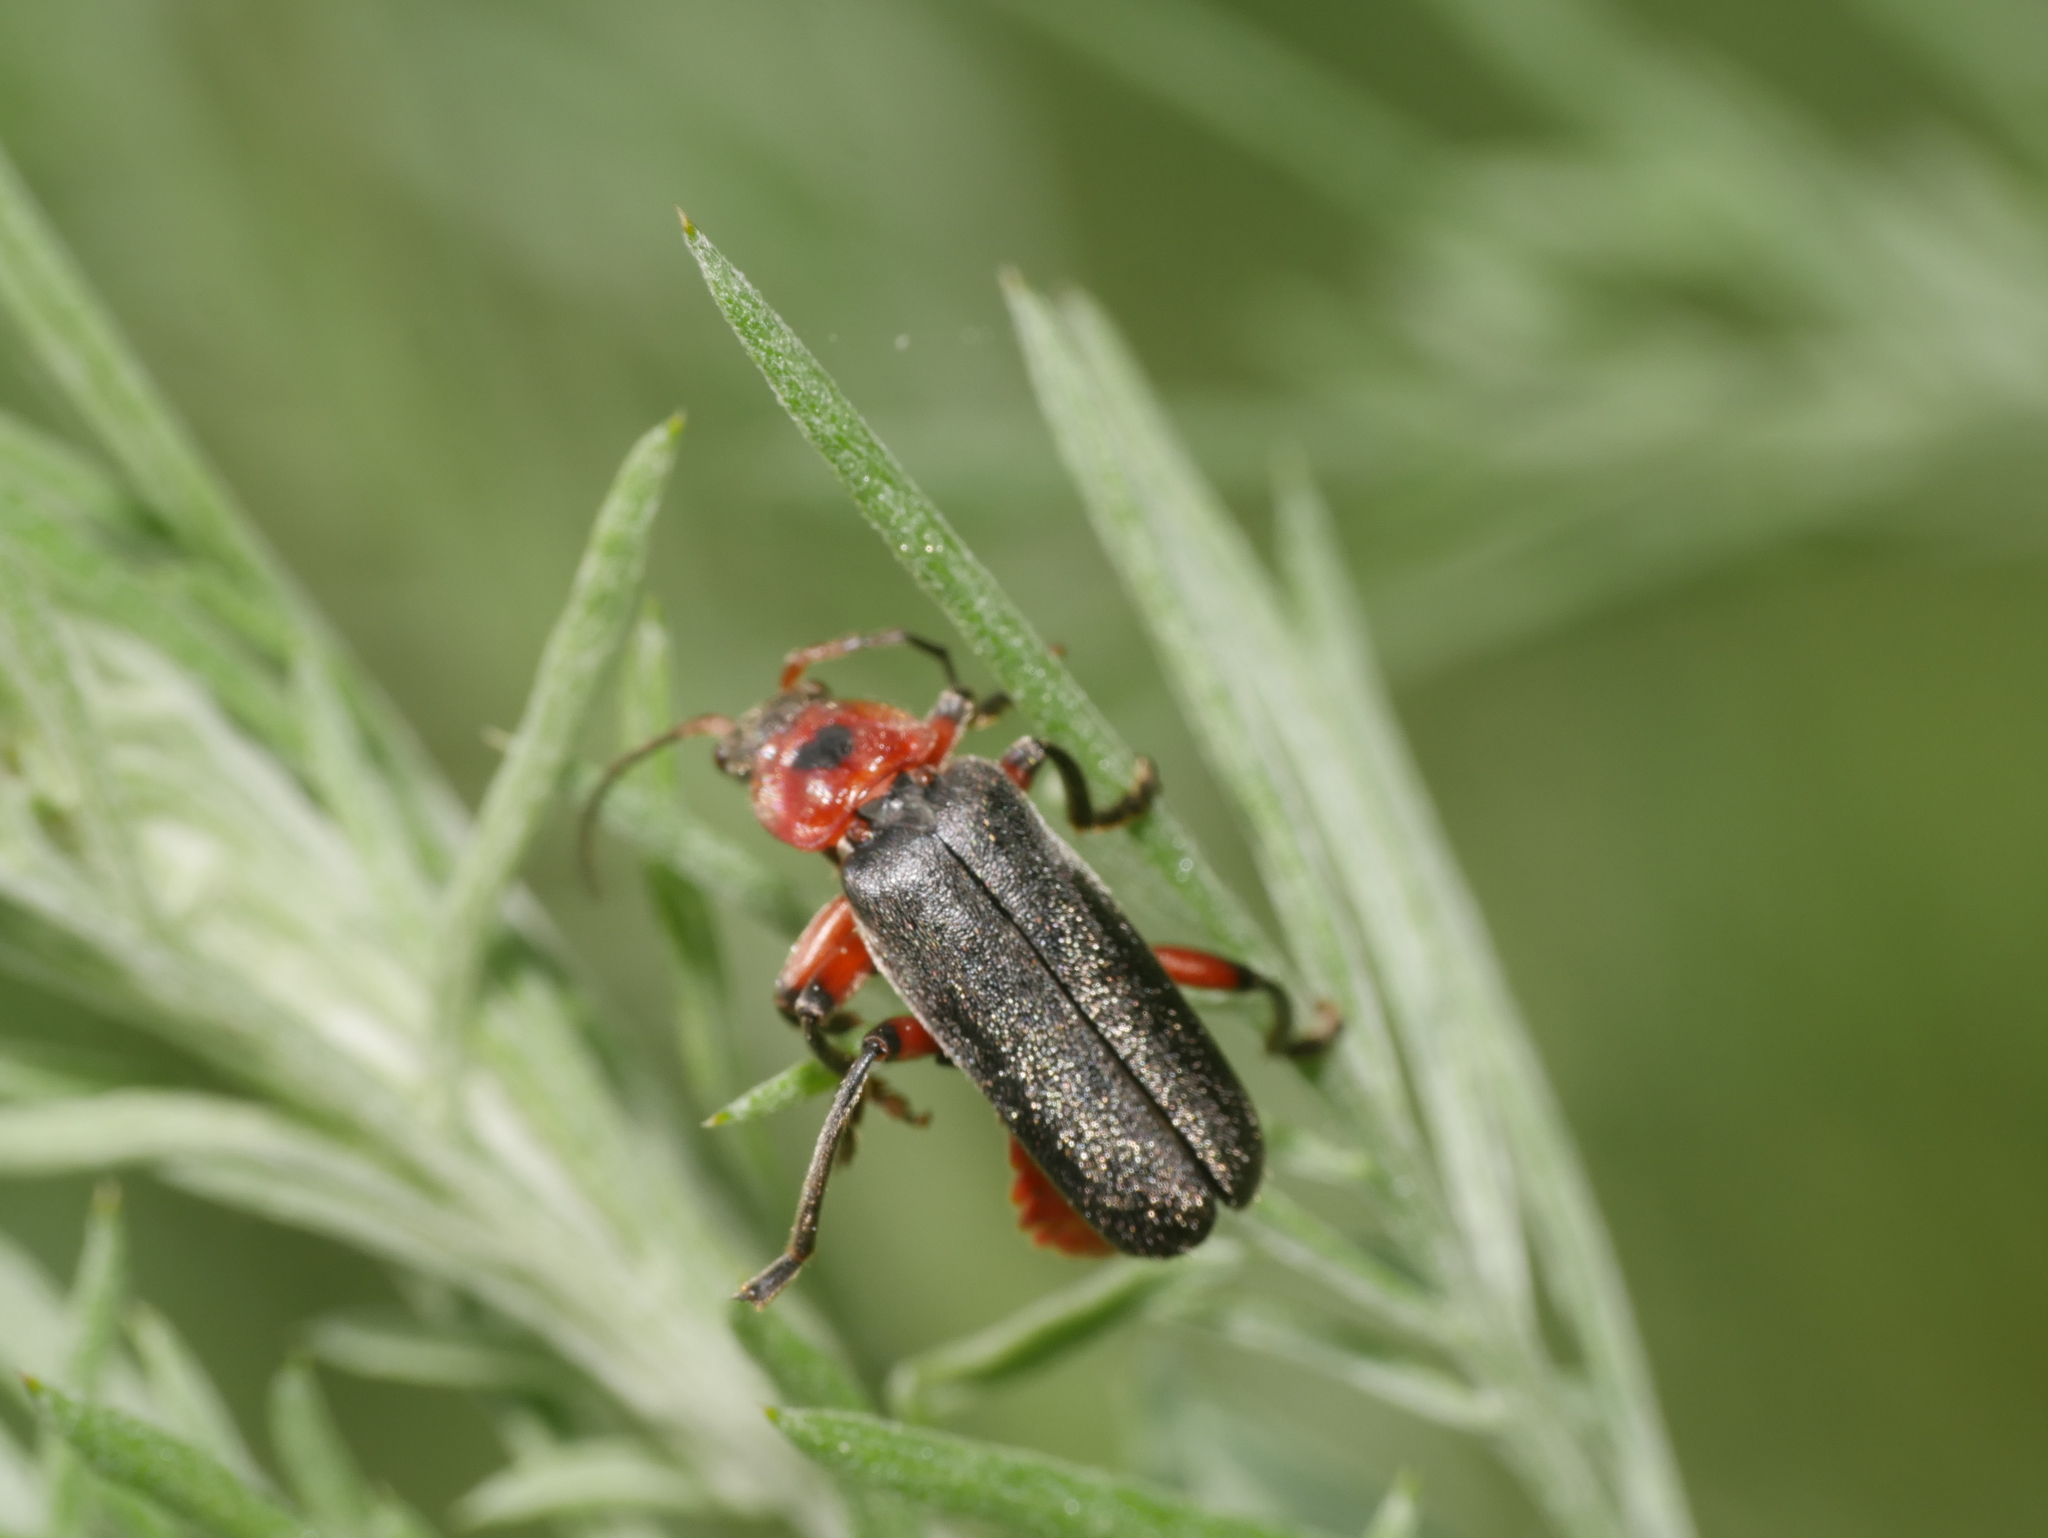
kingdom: Animalia
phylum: Arthropoda
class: Insecta
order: Coleoptera
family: Cantharidae
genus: Cantharis
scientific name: Cantharis rustica
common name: Soldier beetle
